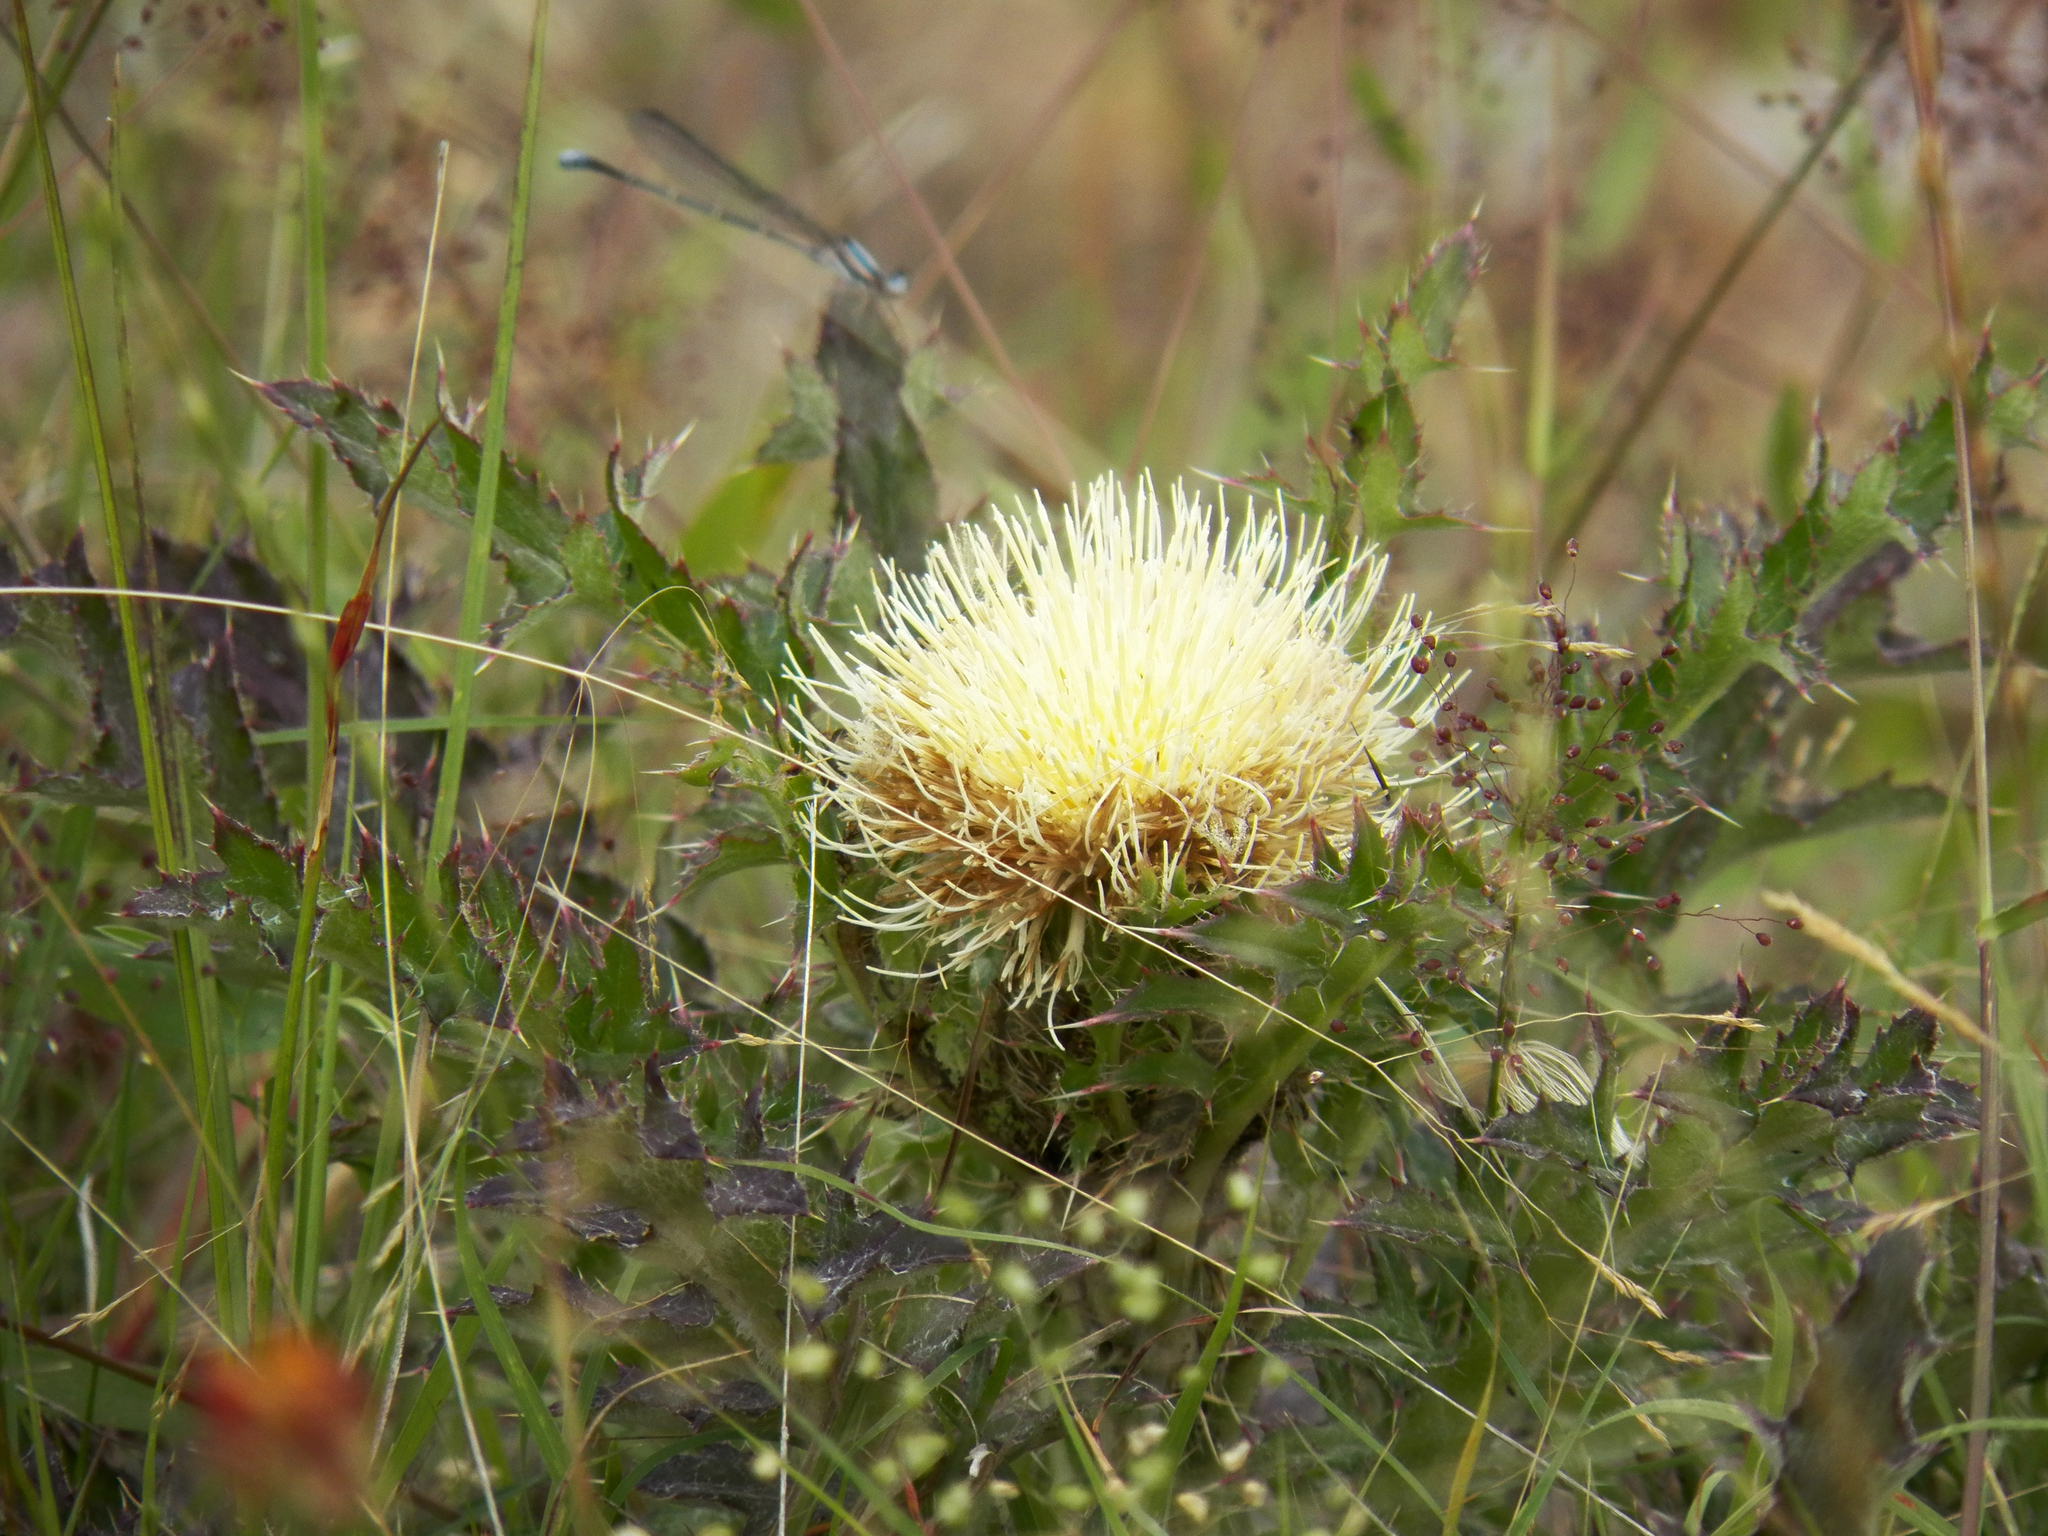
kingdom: Plantae
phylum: Tracheophyta
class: Magnoliopsida
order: Asterales
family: Asteraceae
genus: Cirsium
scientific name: Cirsium horridulum
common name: Bristly thistle
